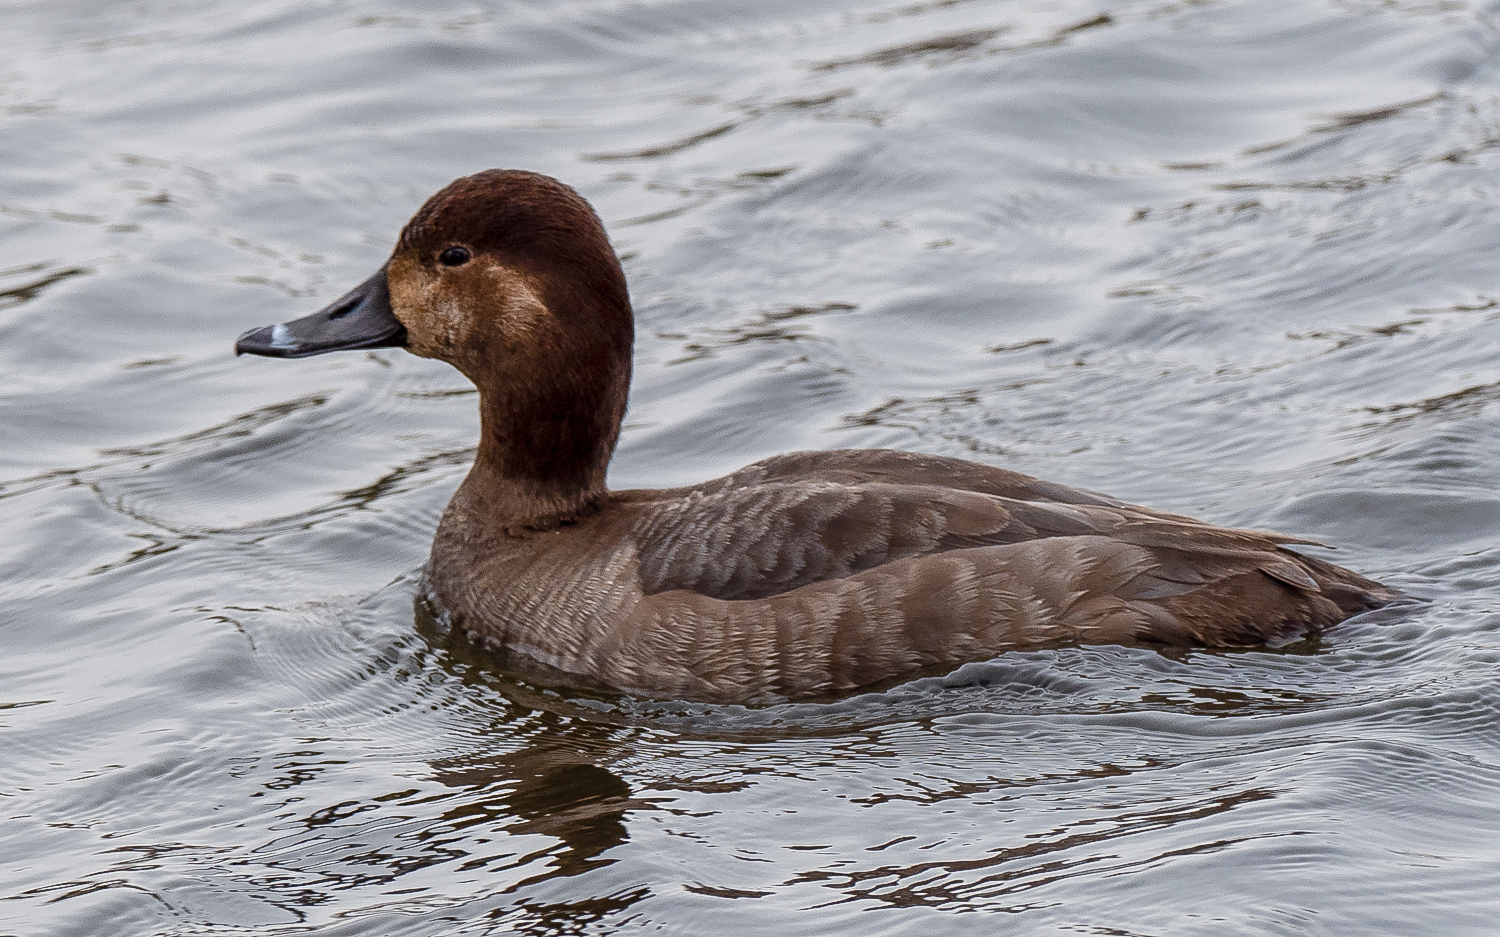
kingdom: Animalia
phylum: Chordata
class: Aves
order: Anseriformes
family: Anatidae
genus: Aythya
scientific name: Aythya americana
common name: Redhead
